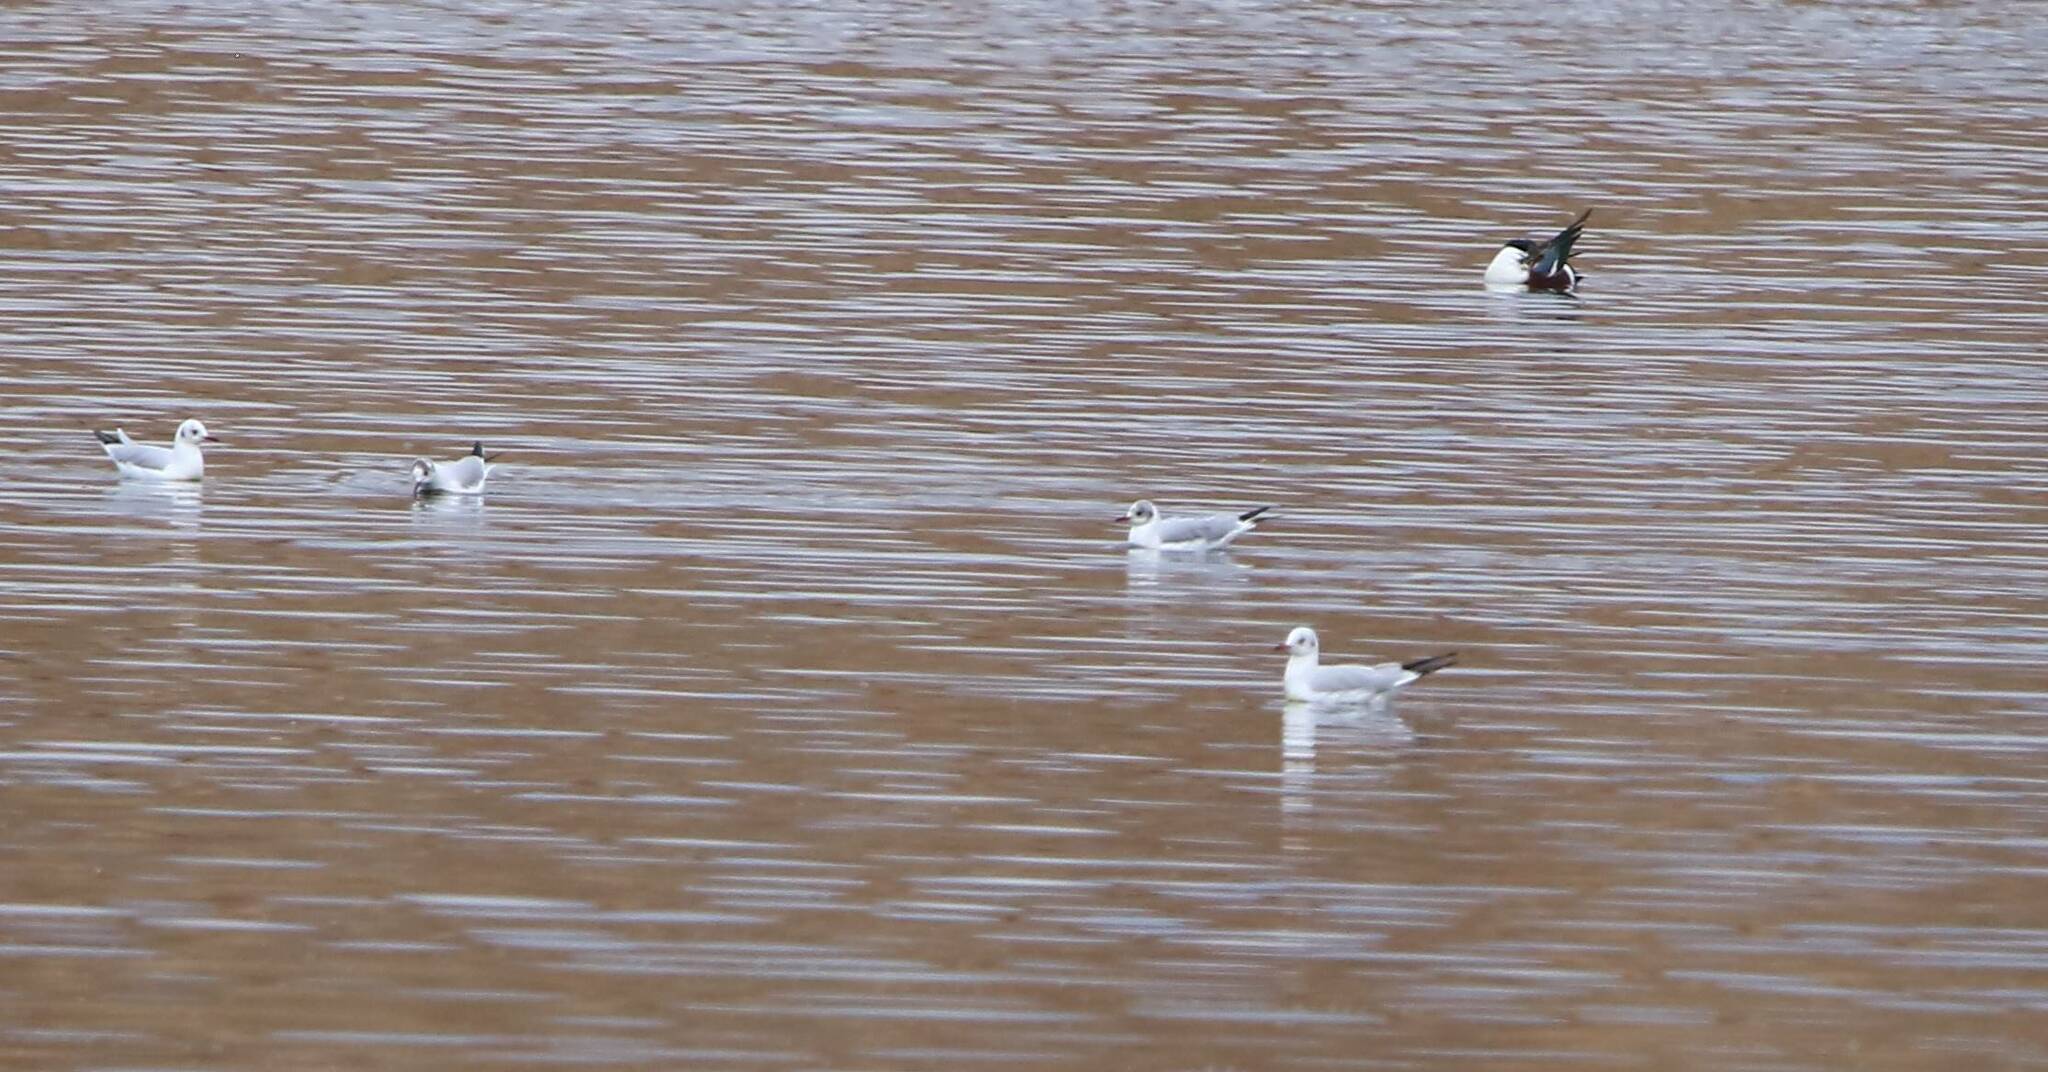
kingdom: Animalia
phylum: Chordata
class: Aves
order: Charadriiformes
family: Laridae
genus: Chroicocephalus
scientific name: Chroicocephalus ridibundus
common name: Black-headed gull
